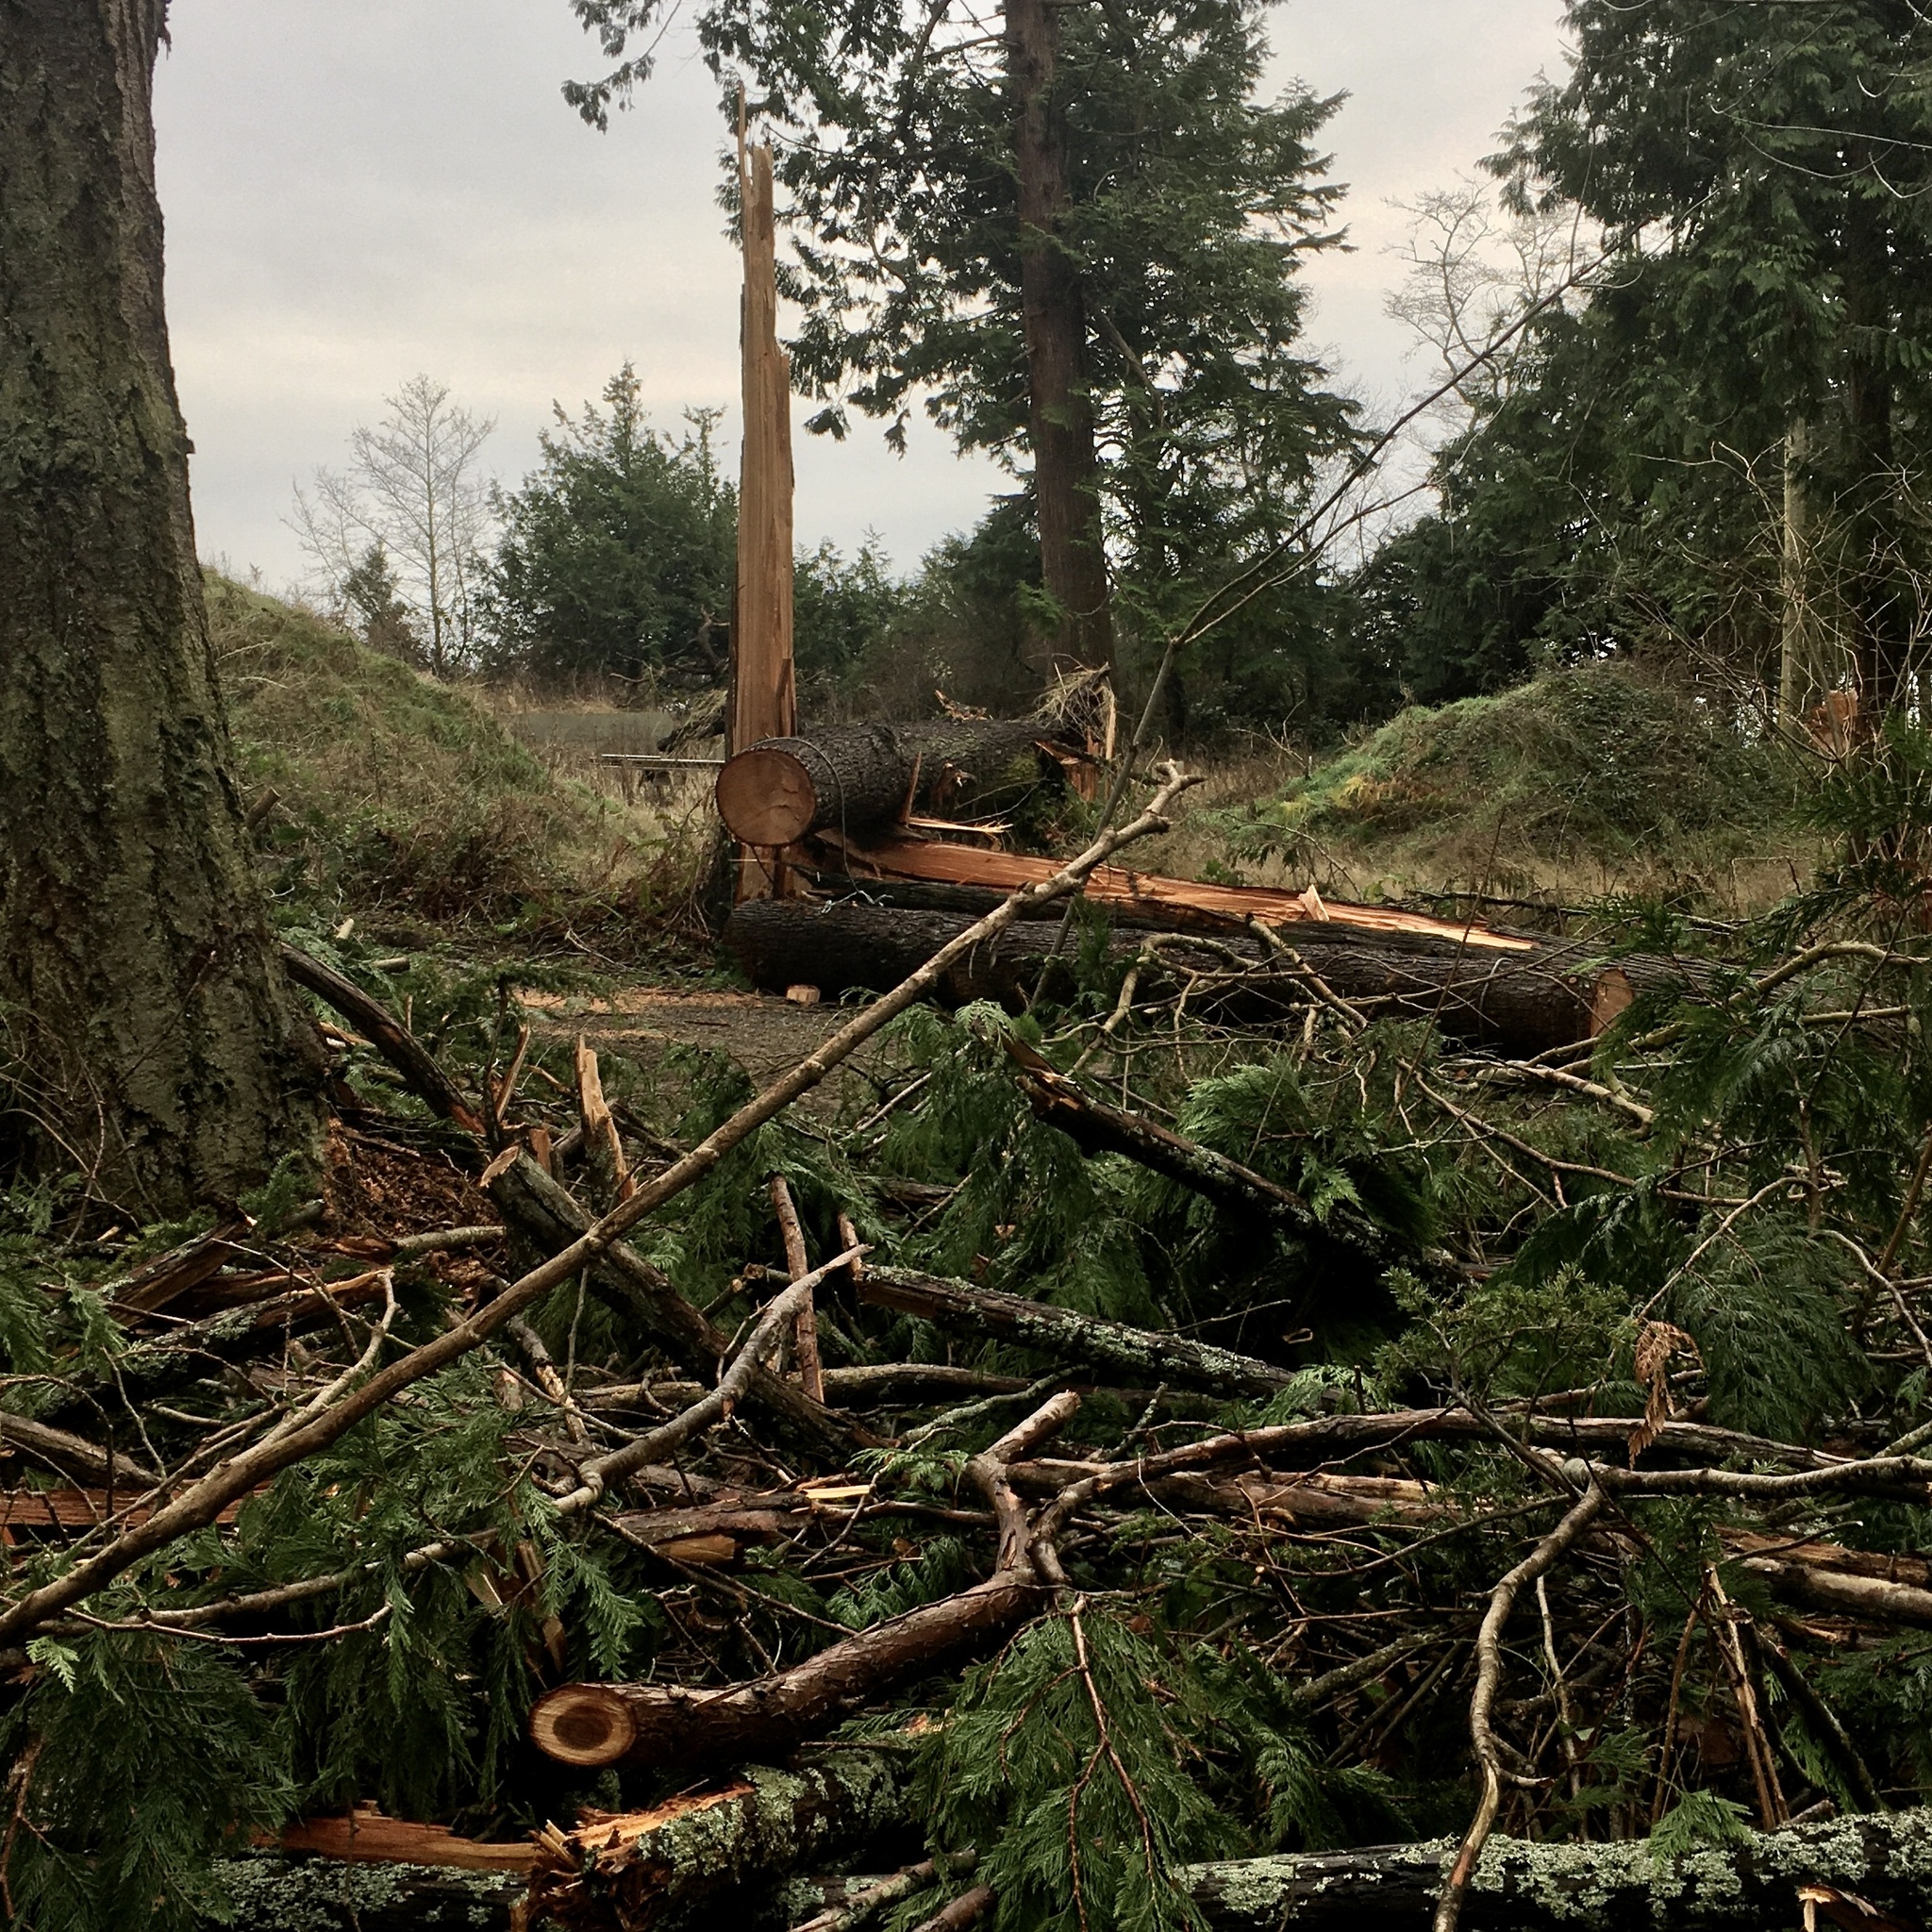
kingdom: Plantae
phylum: Tracheophyta
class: Pinopsida
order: Pinales
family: Cupressaceae
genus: Thuja
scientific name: Thuja plicata
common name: Western red-cedar
